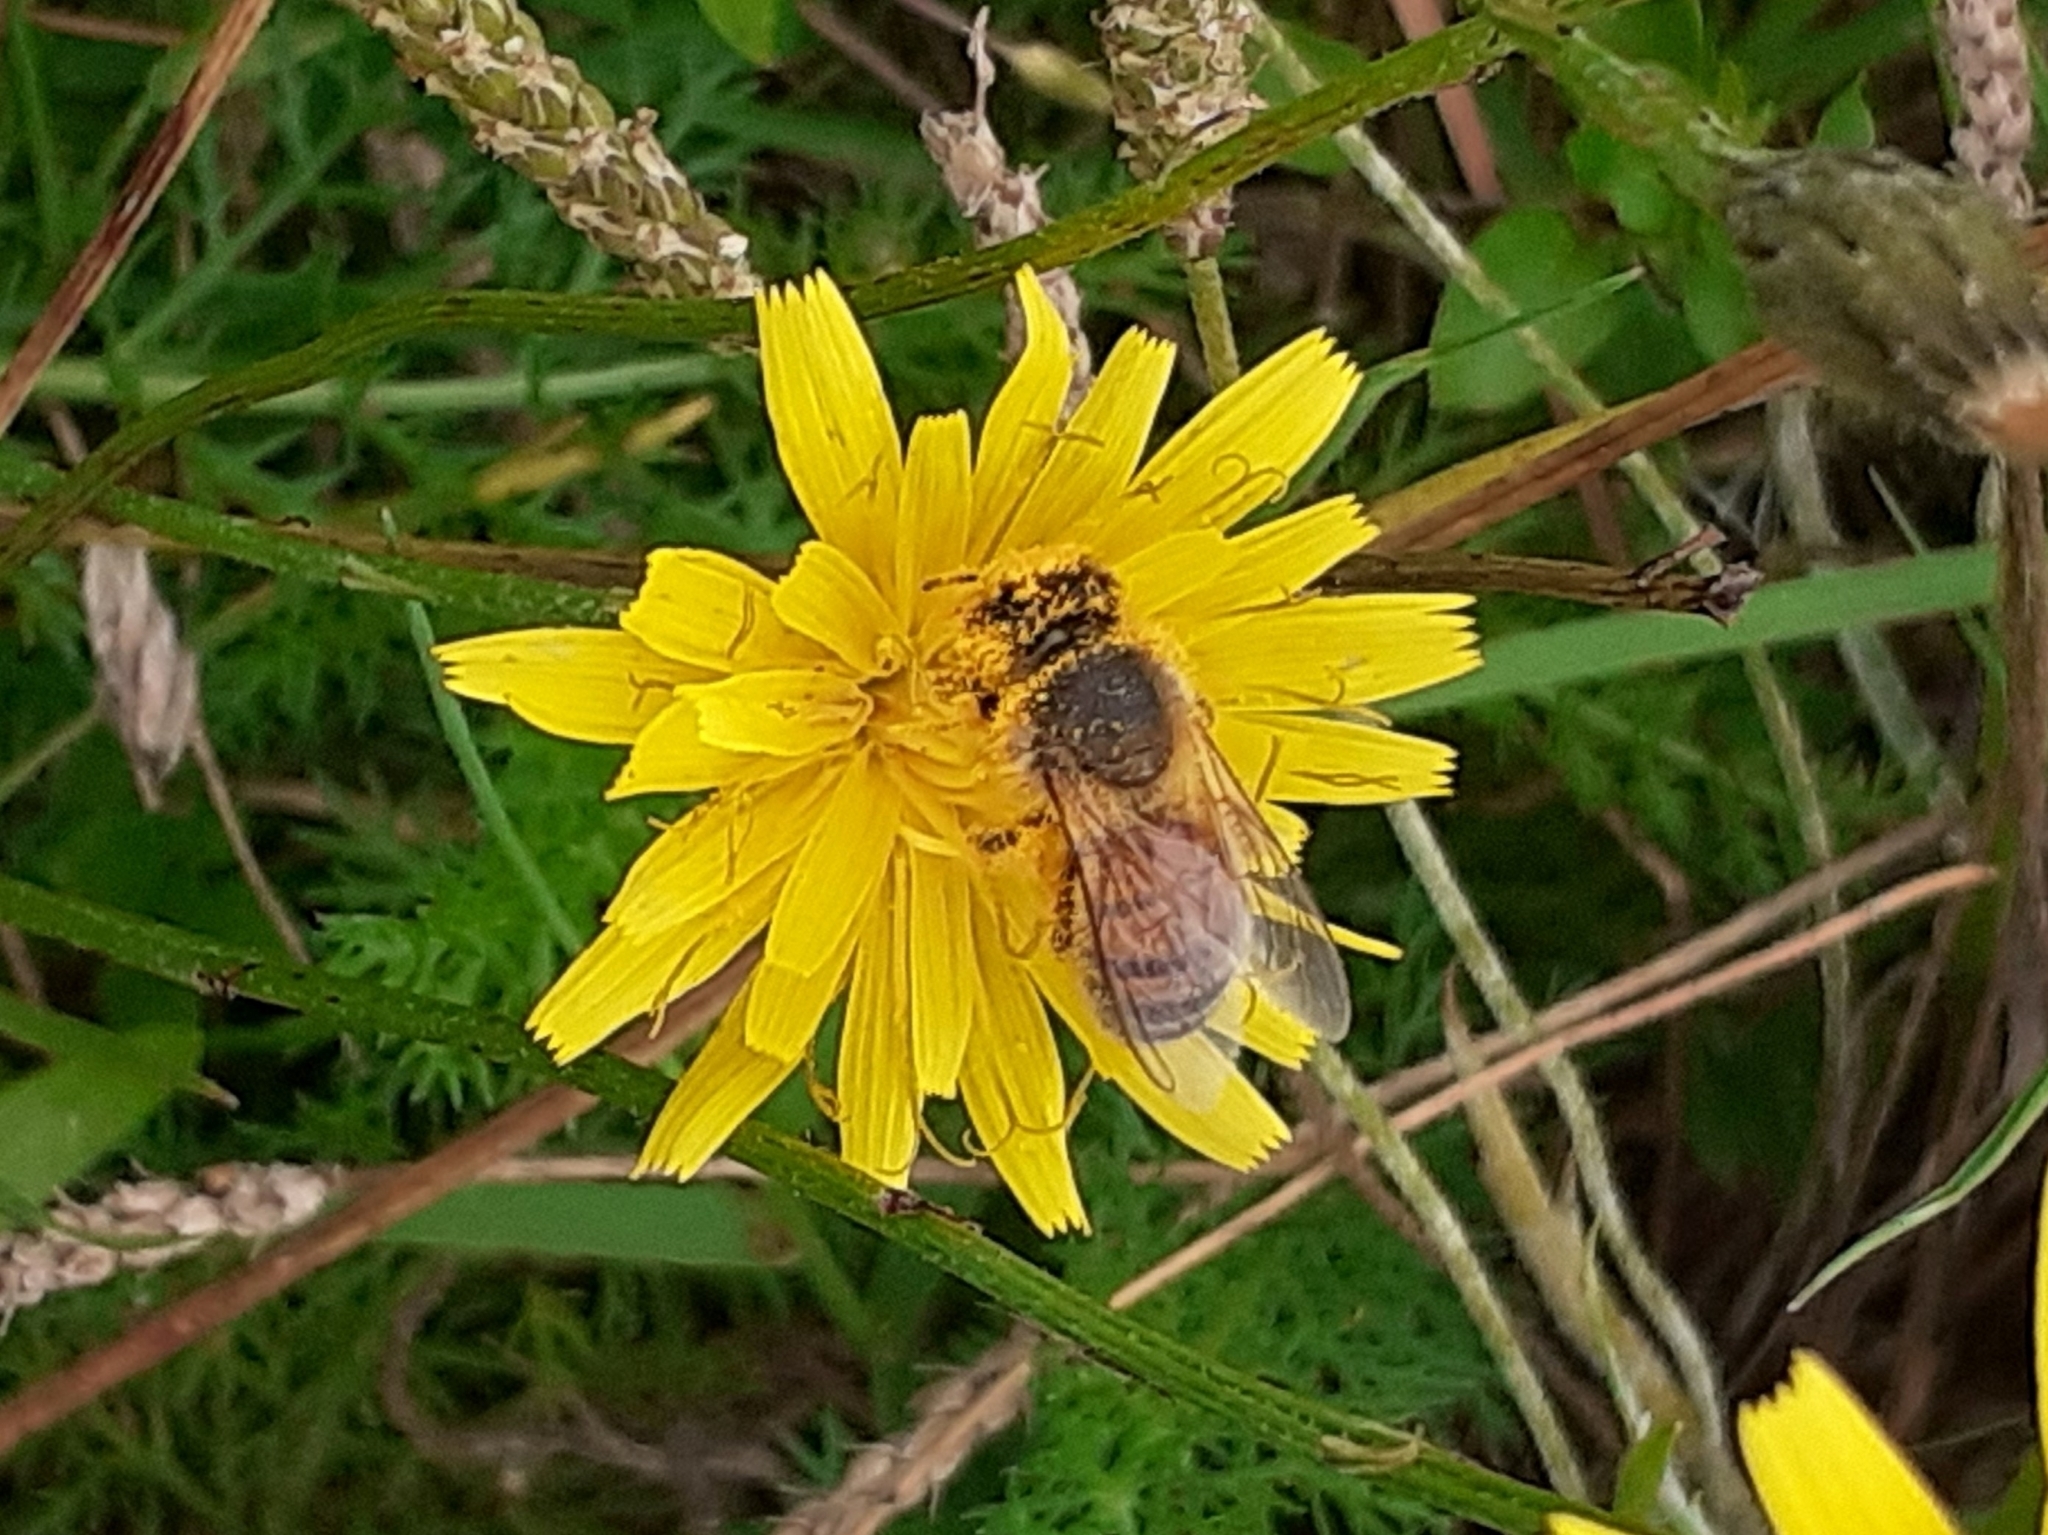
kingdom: Animalia
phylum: Arthropoda
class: Insecta
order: Hymenoptera
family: Apidae
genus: Apis
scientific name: Apis mellifera
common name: Honey bee
